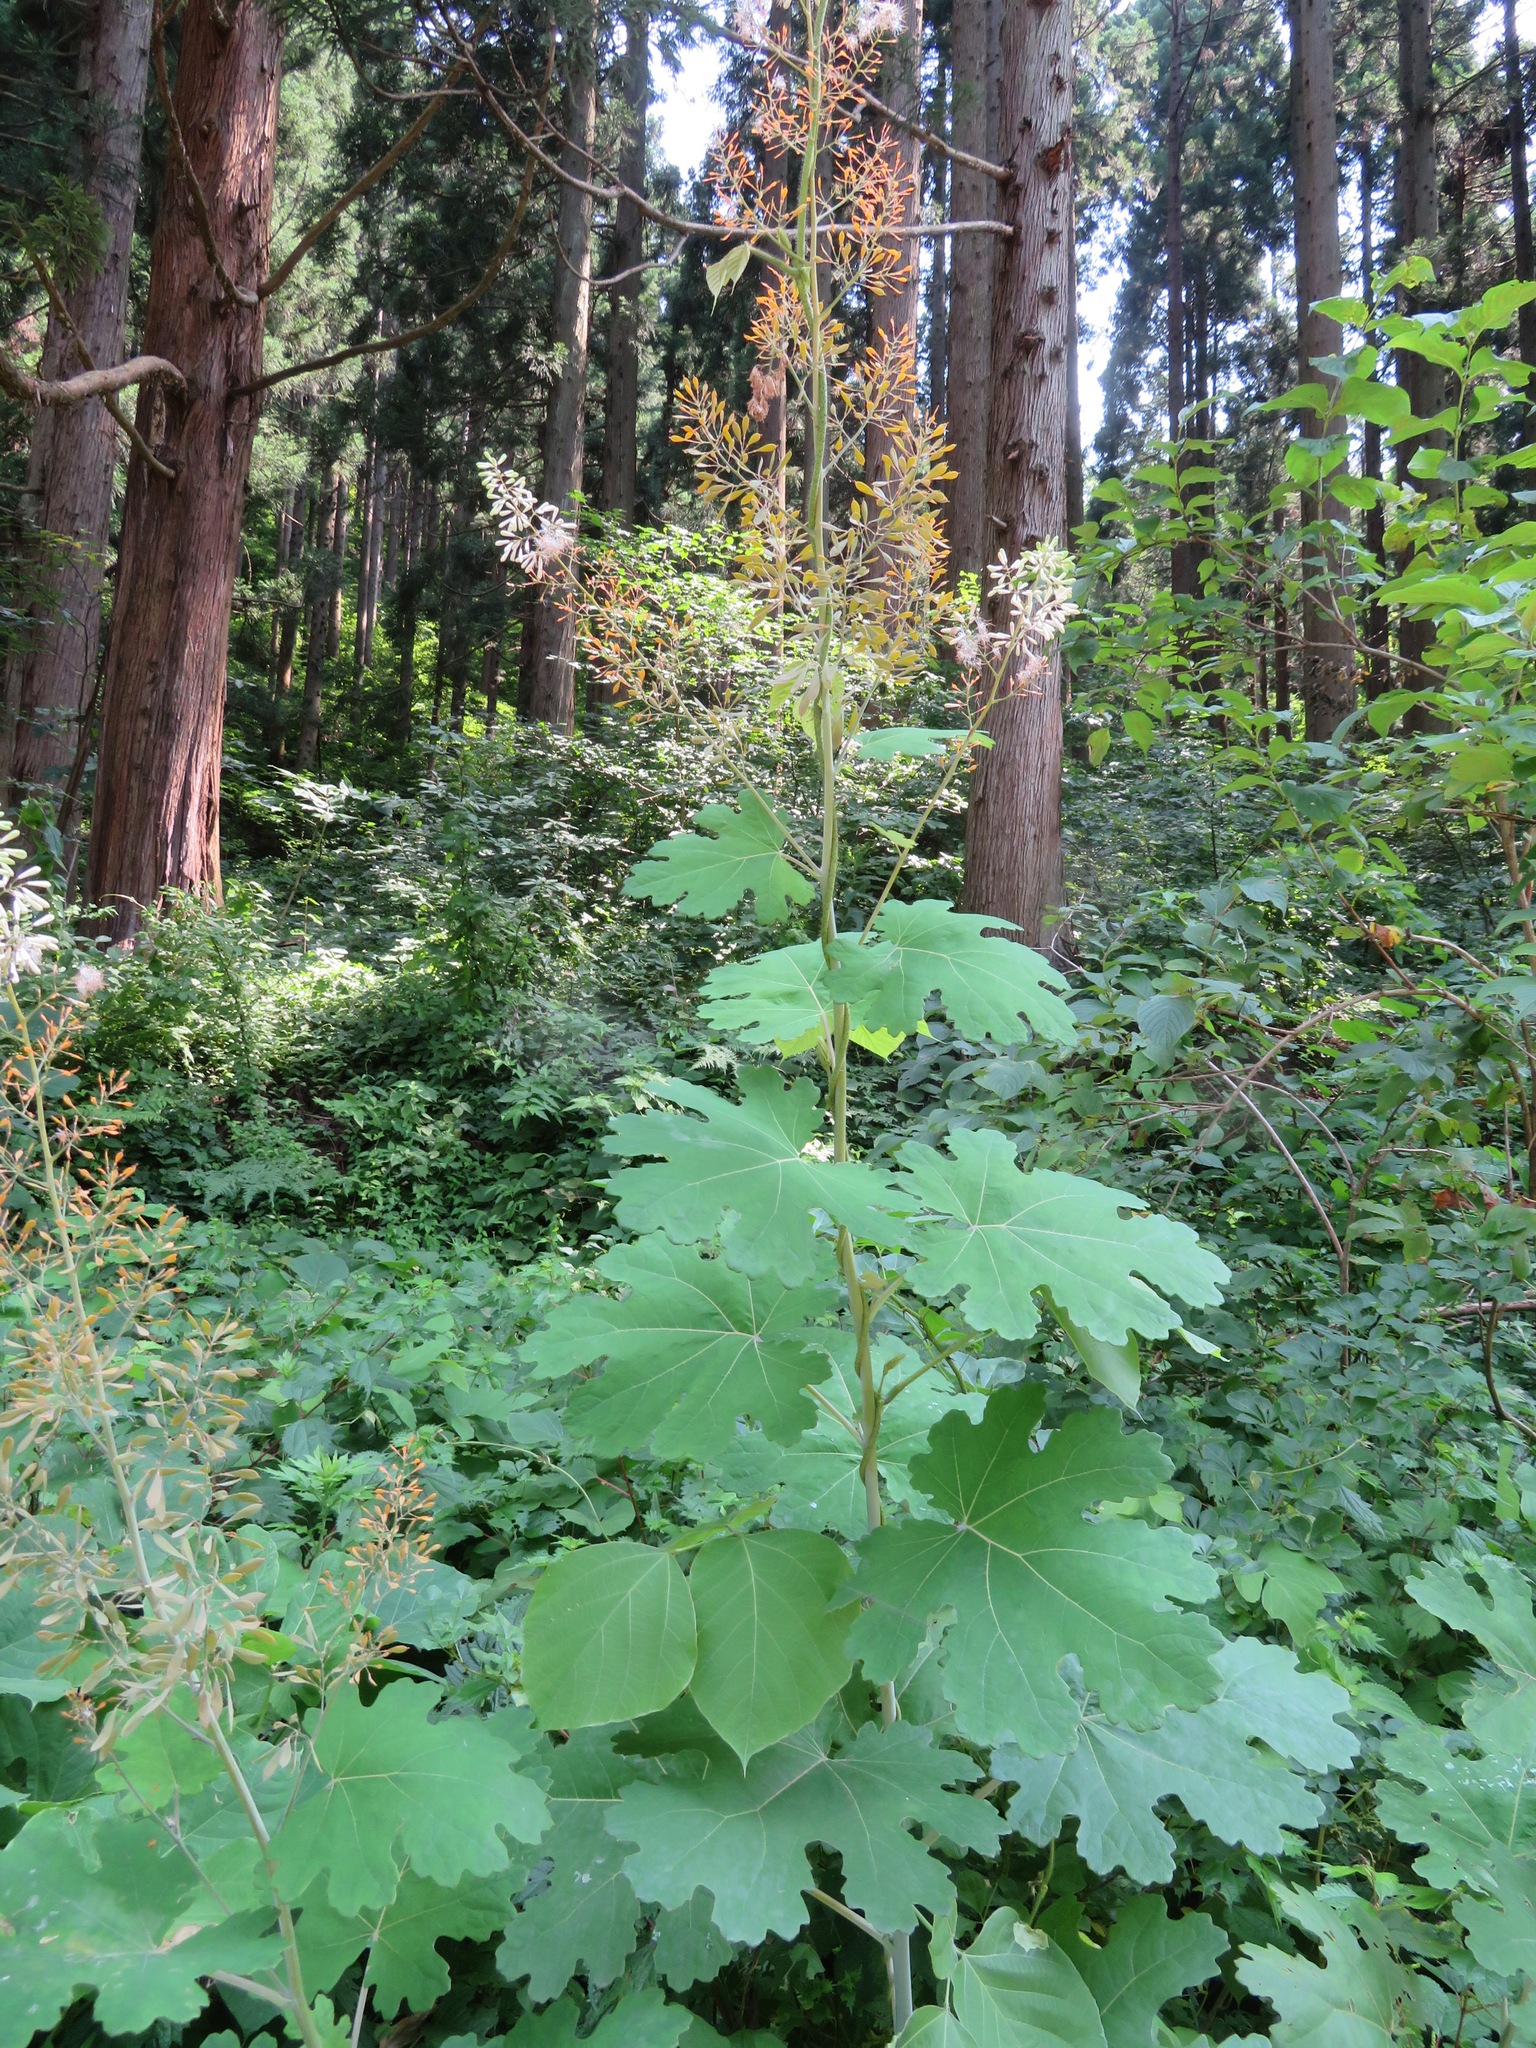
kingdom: Plantae
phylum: Tracheophyta
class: Magnoliopsida
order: Ranunculales
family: Papaveraceae
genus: Macleaya
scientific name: Macleaya cordata
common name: Plume poppy
